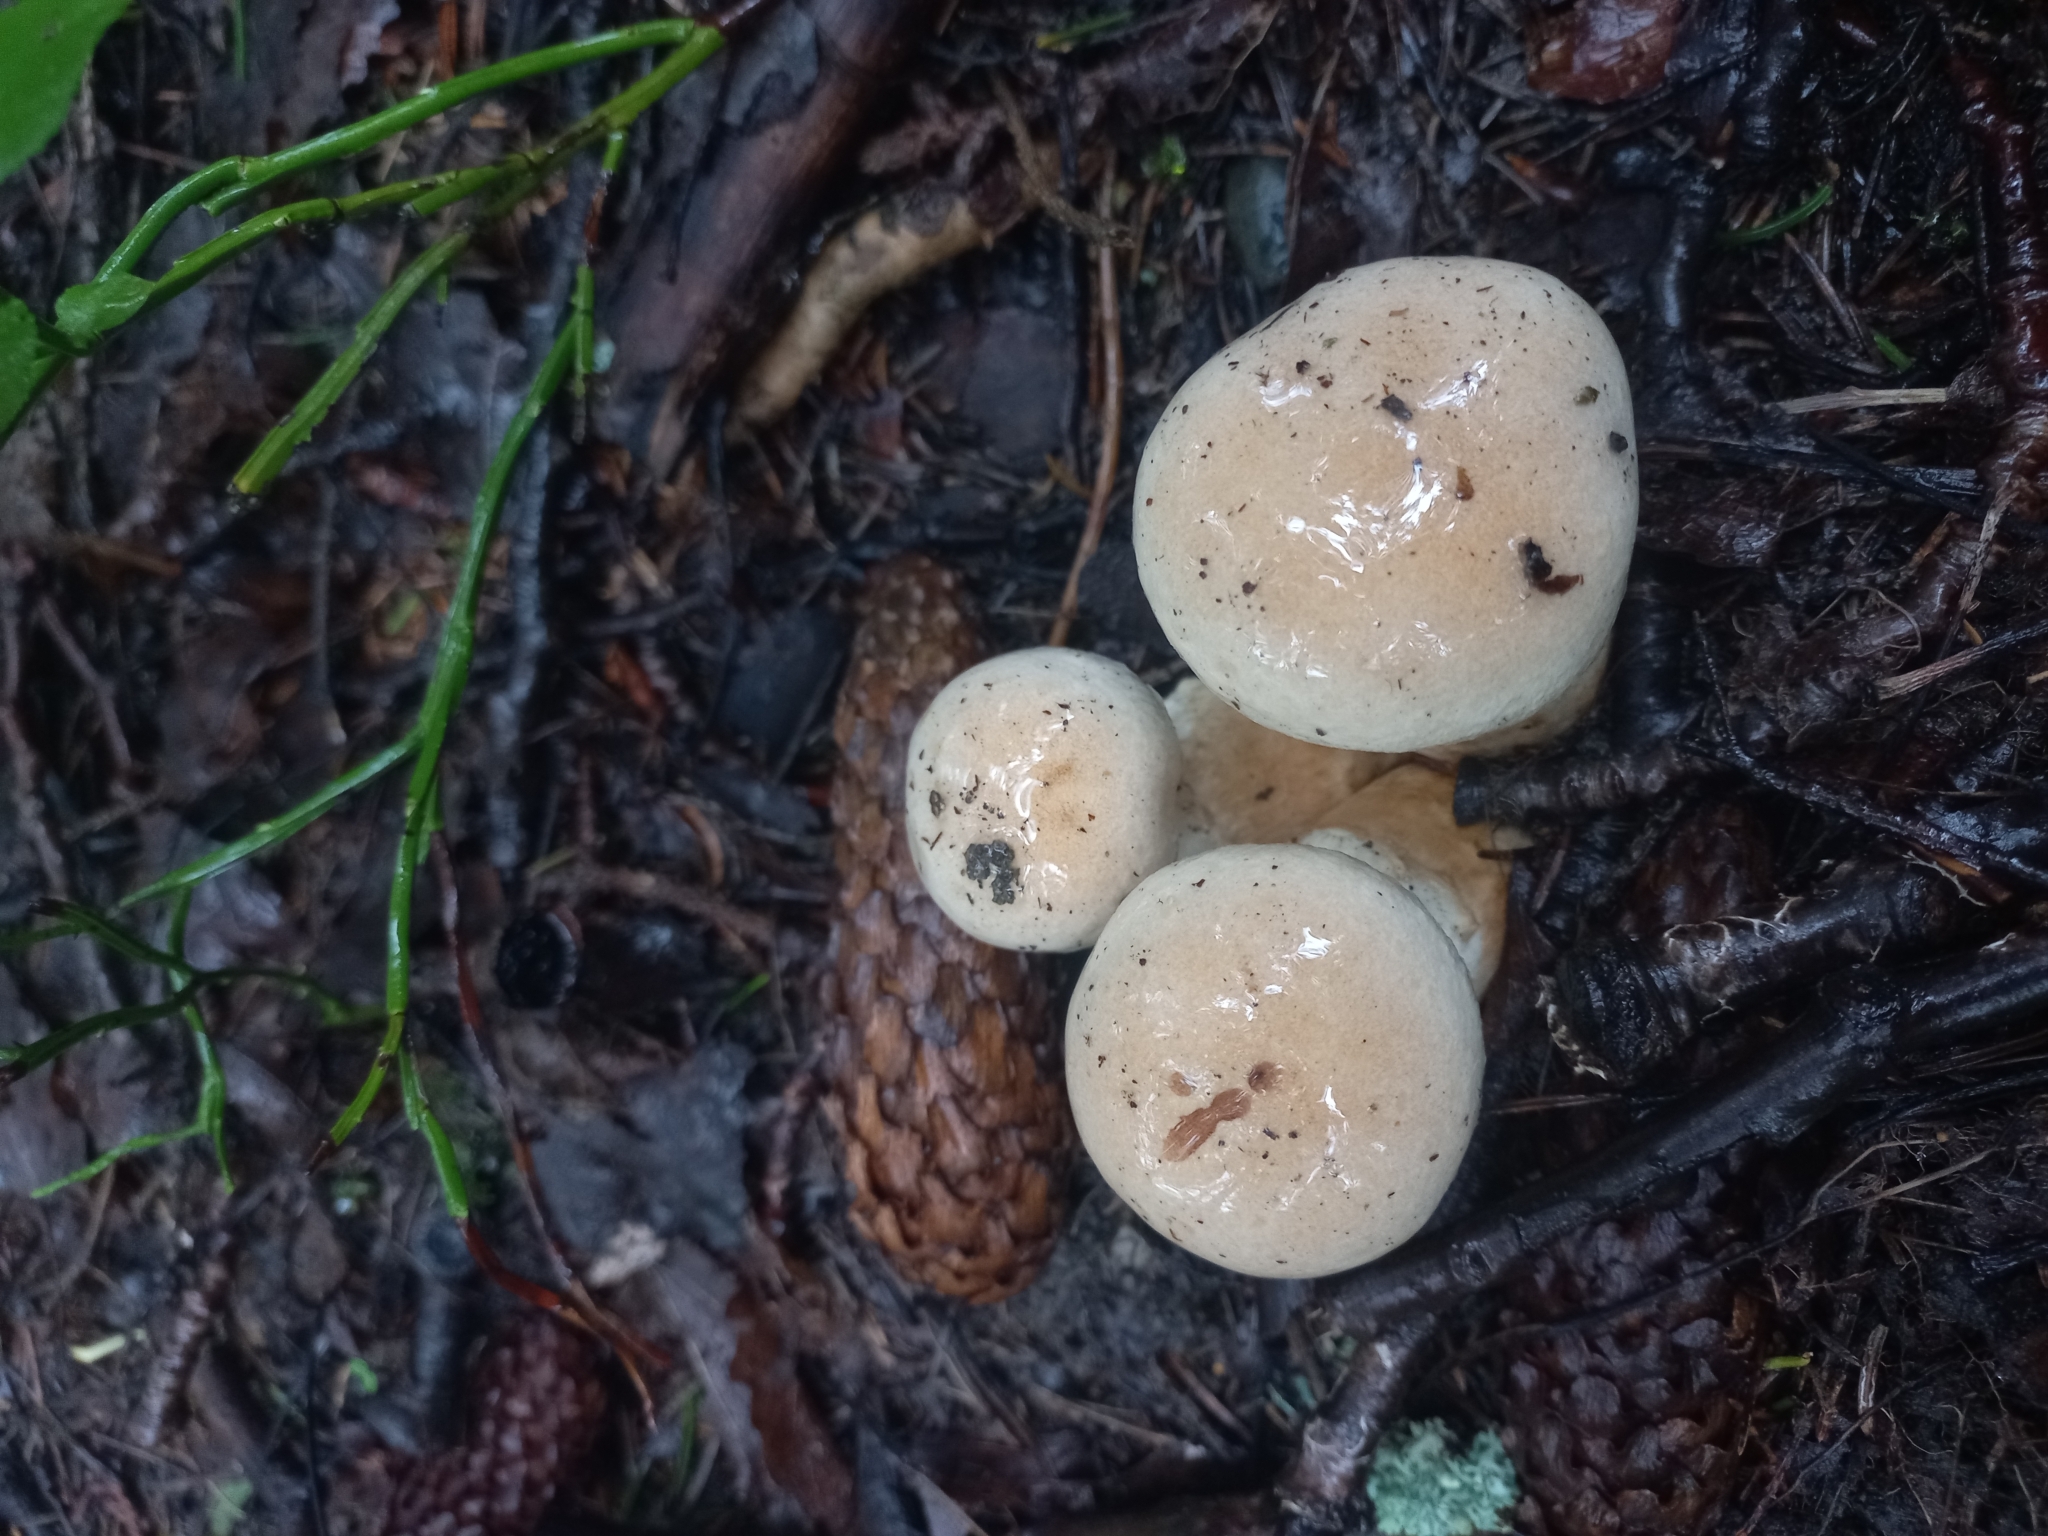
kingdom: Fungi
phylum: Basidiomycota
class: Agaricomycetes
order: Agaricales
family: Cortinariaceae
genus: Phlegmacium
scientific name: Phlegmacium triumphans
